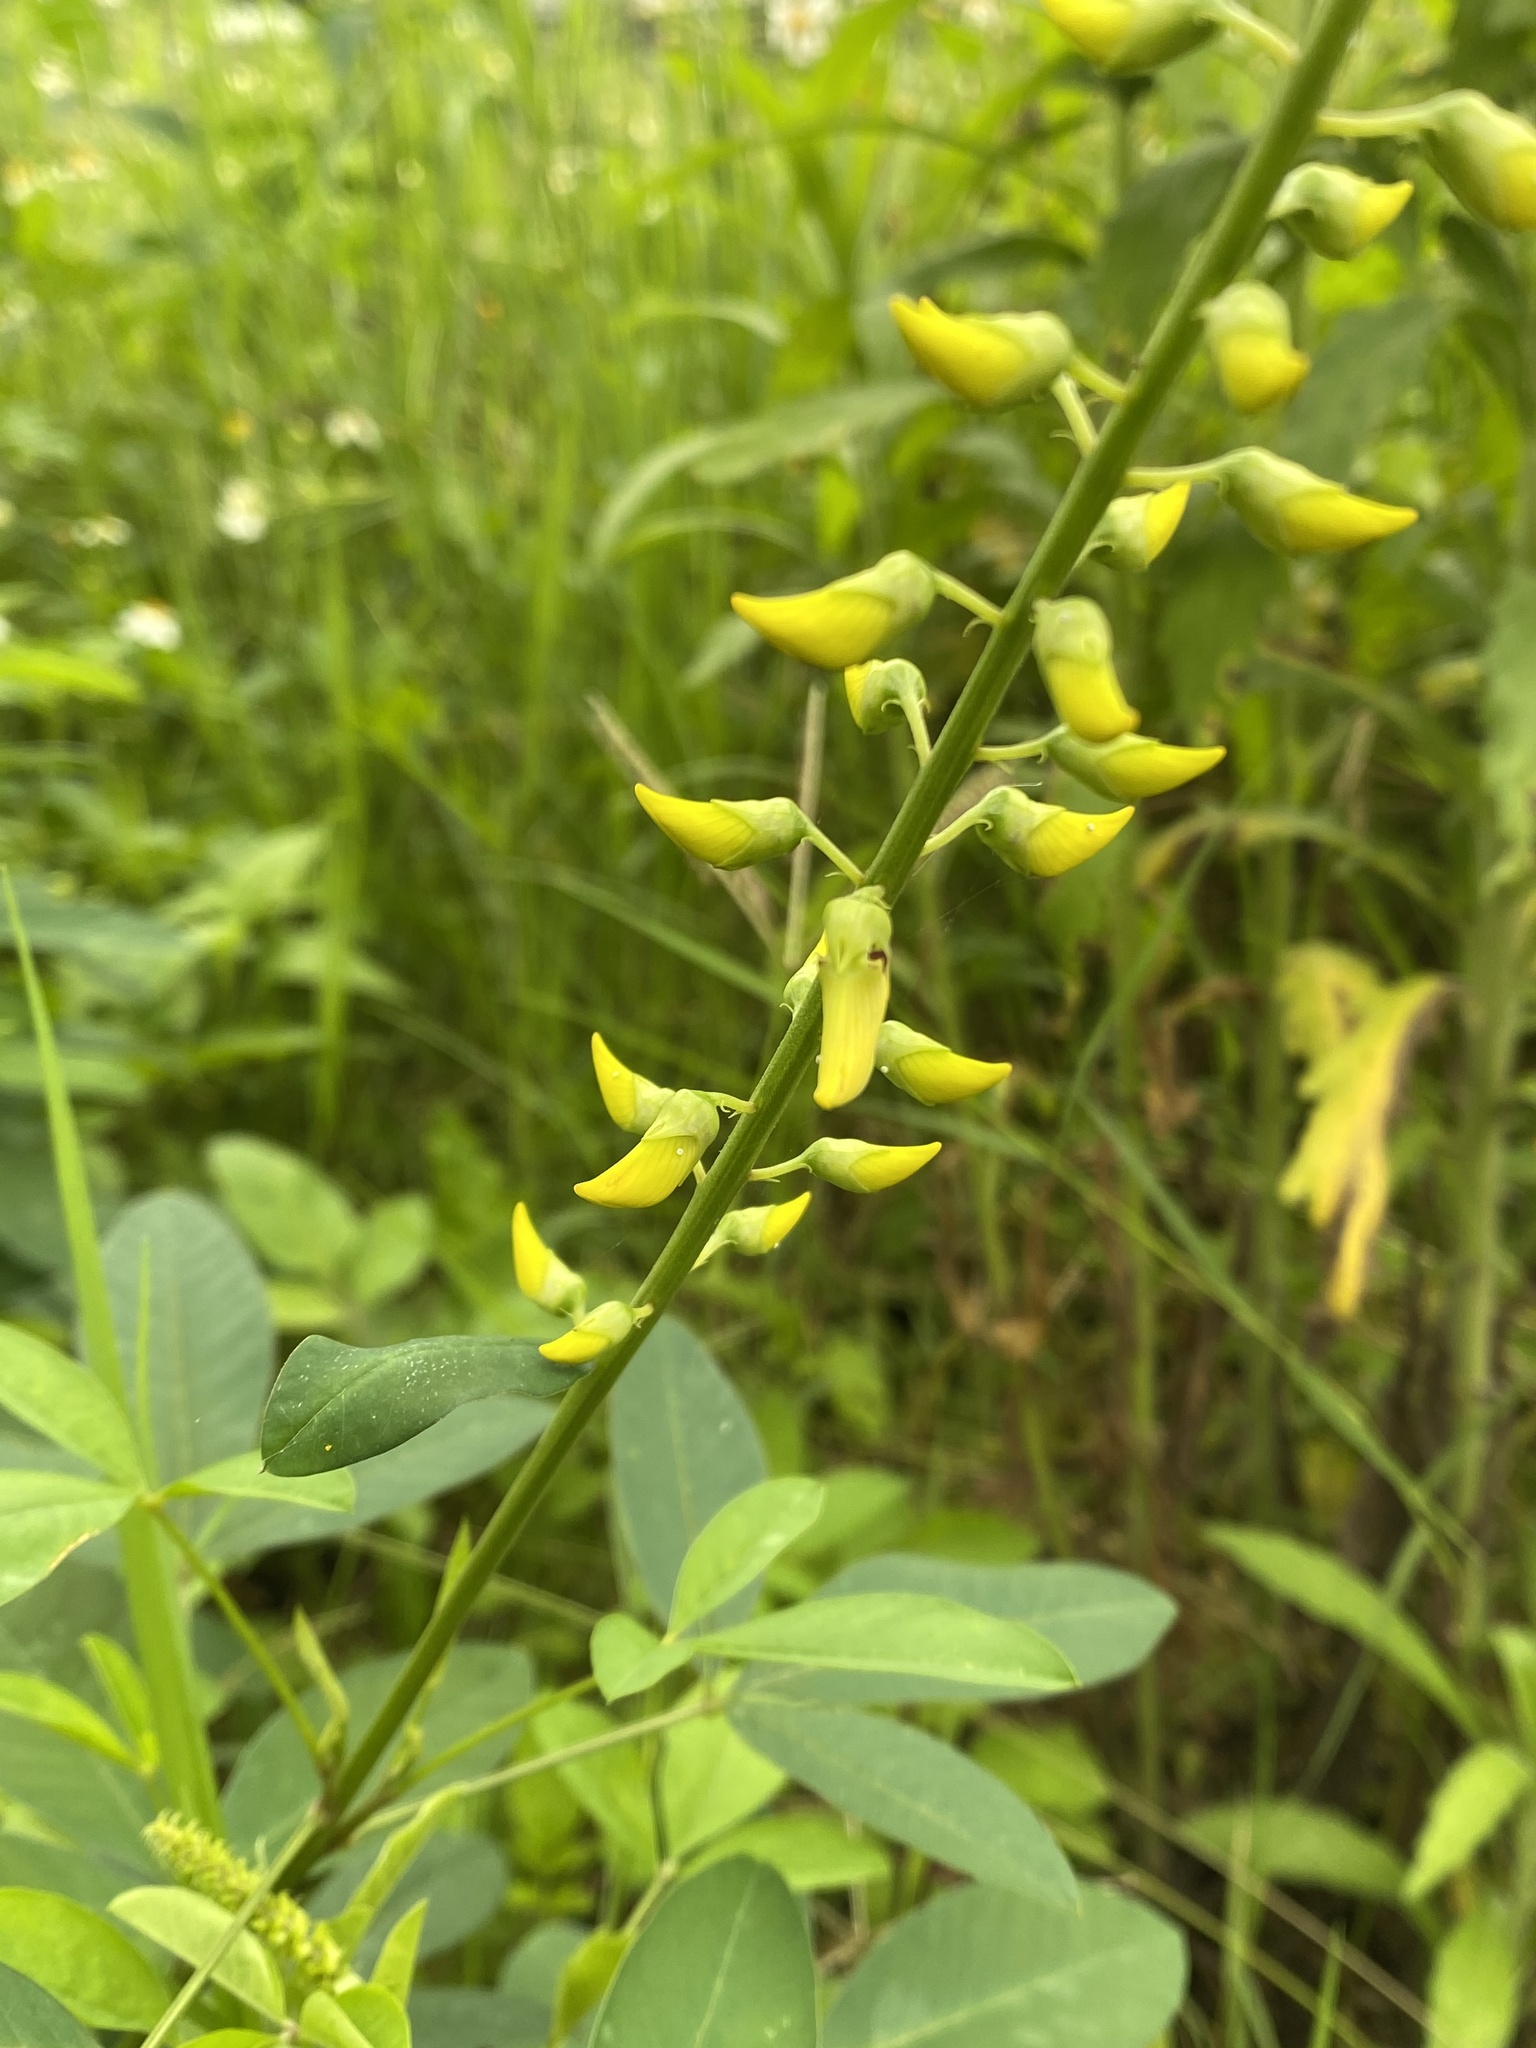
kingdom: Plantae
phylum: Tracheophyta
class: Magnoliopsida
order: Fabales
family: Fabaceae
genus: Crotalaria
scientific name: Crotalaria trichotoma
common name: West indian rattlebox
